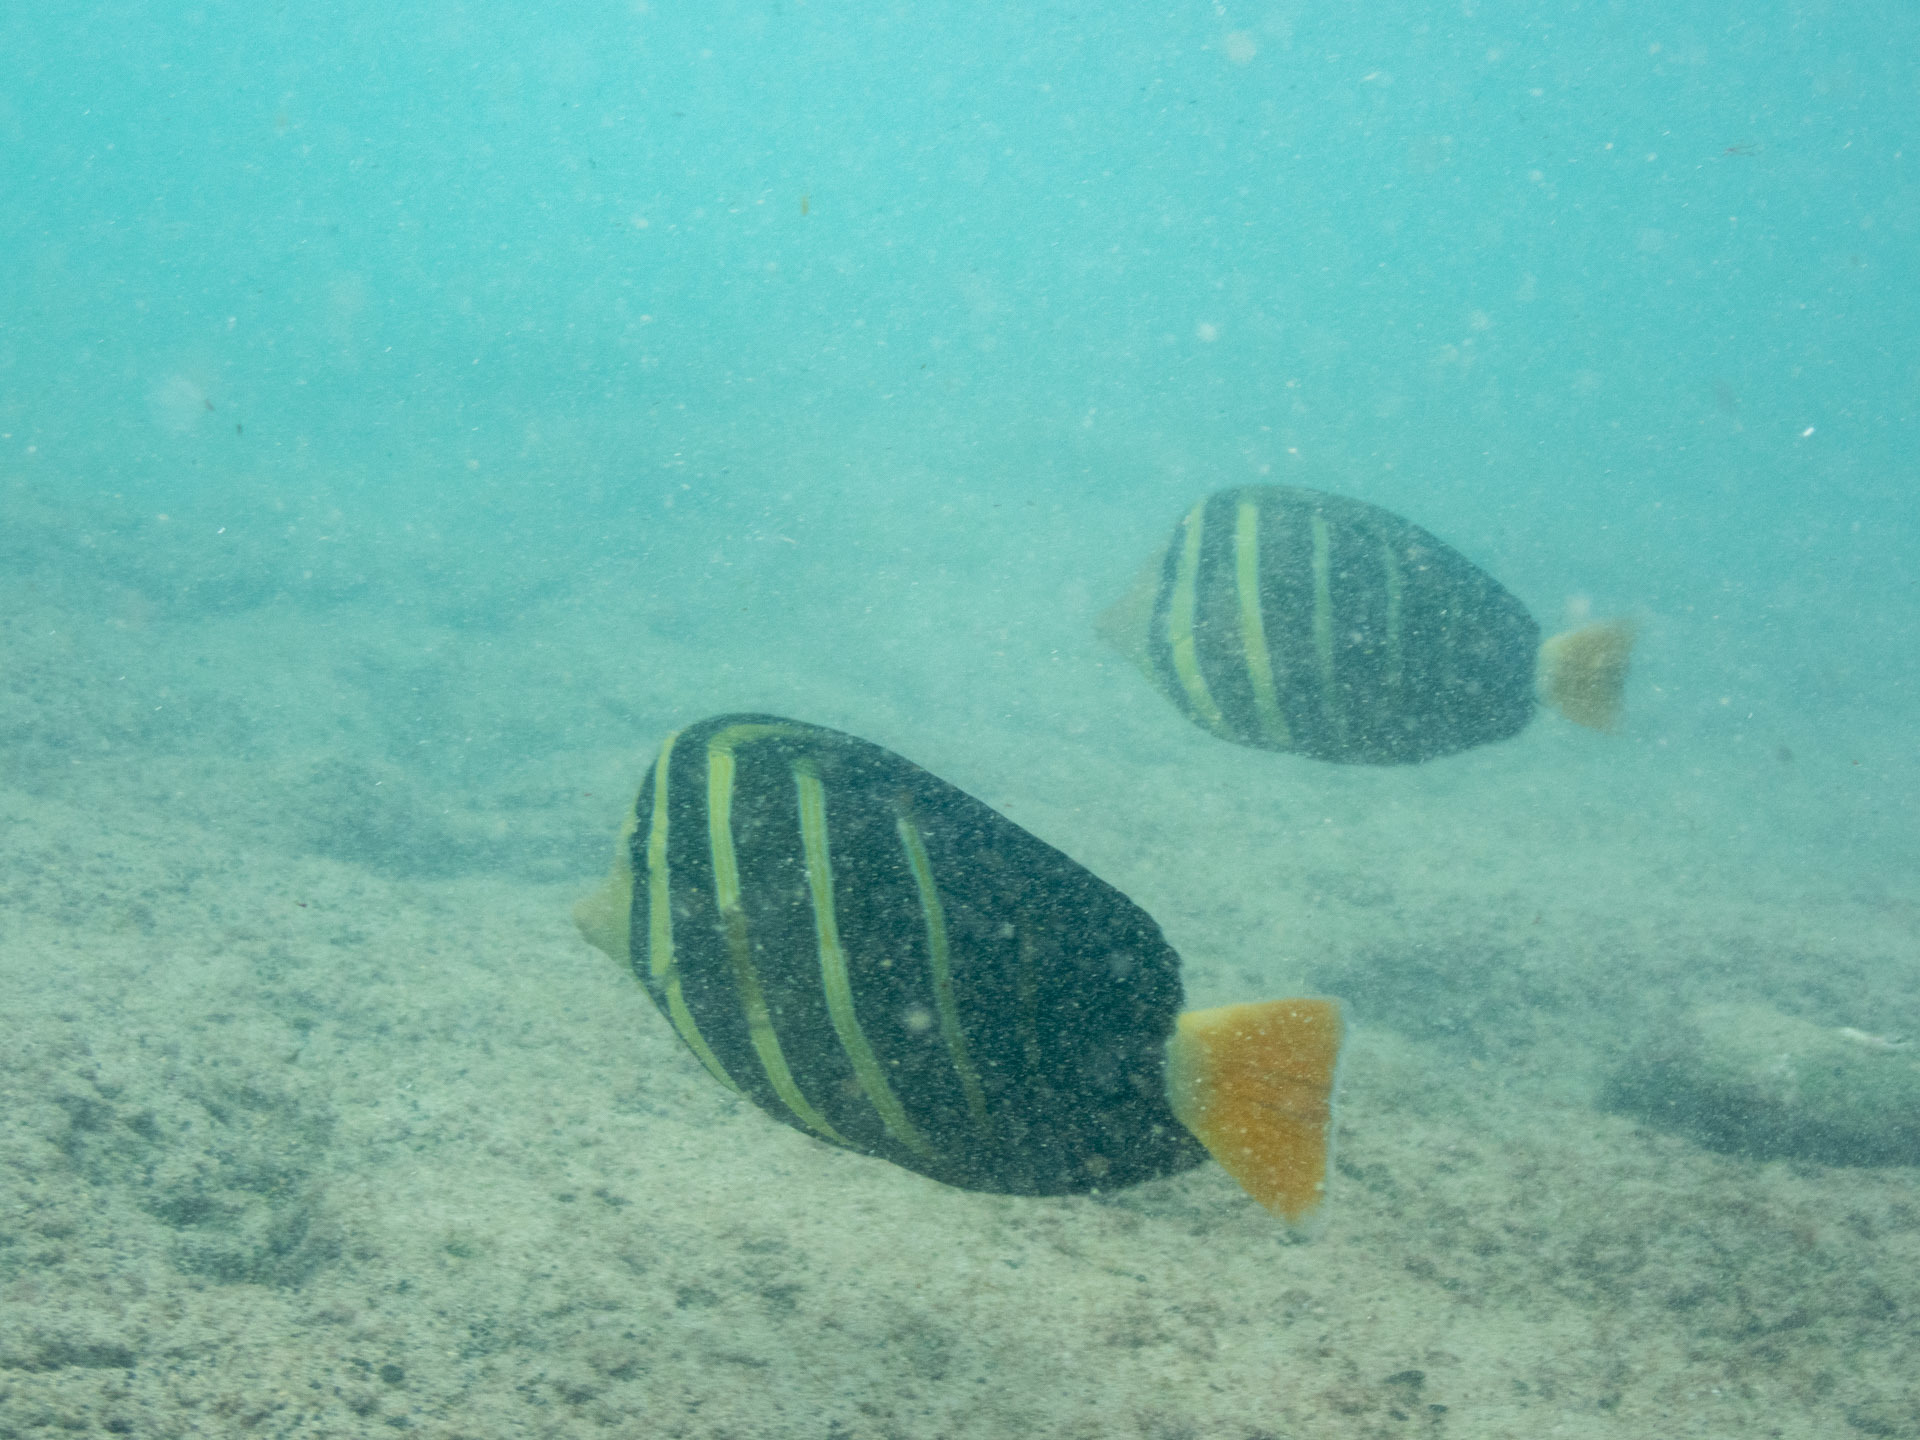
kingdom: Animalia
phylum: Chordata
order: Perciformes
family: Acanthuridae
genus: Zebrasoma
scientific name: Zebrasoma veliferum
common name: Sailfin surgeonfish
